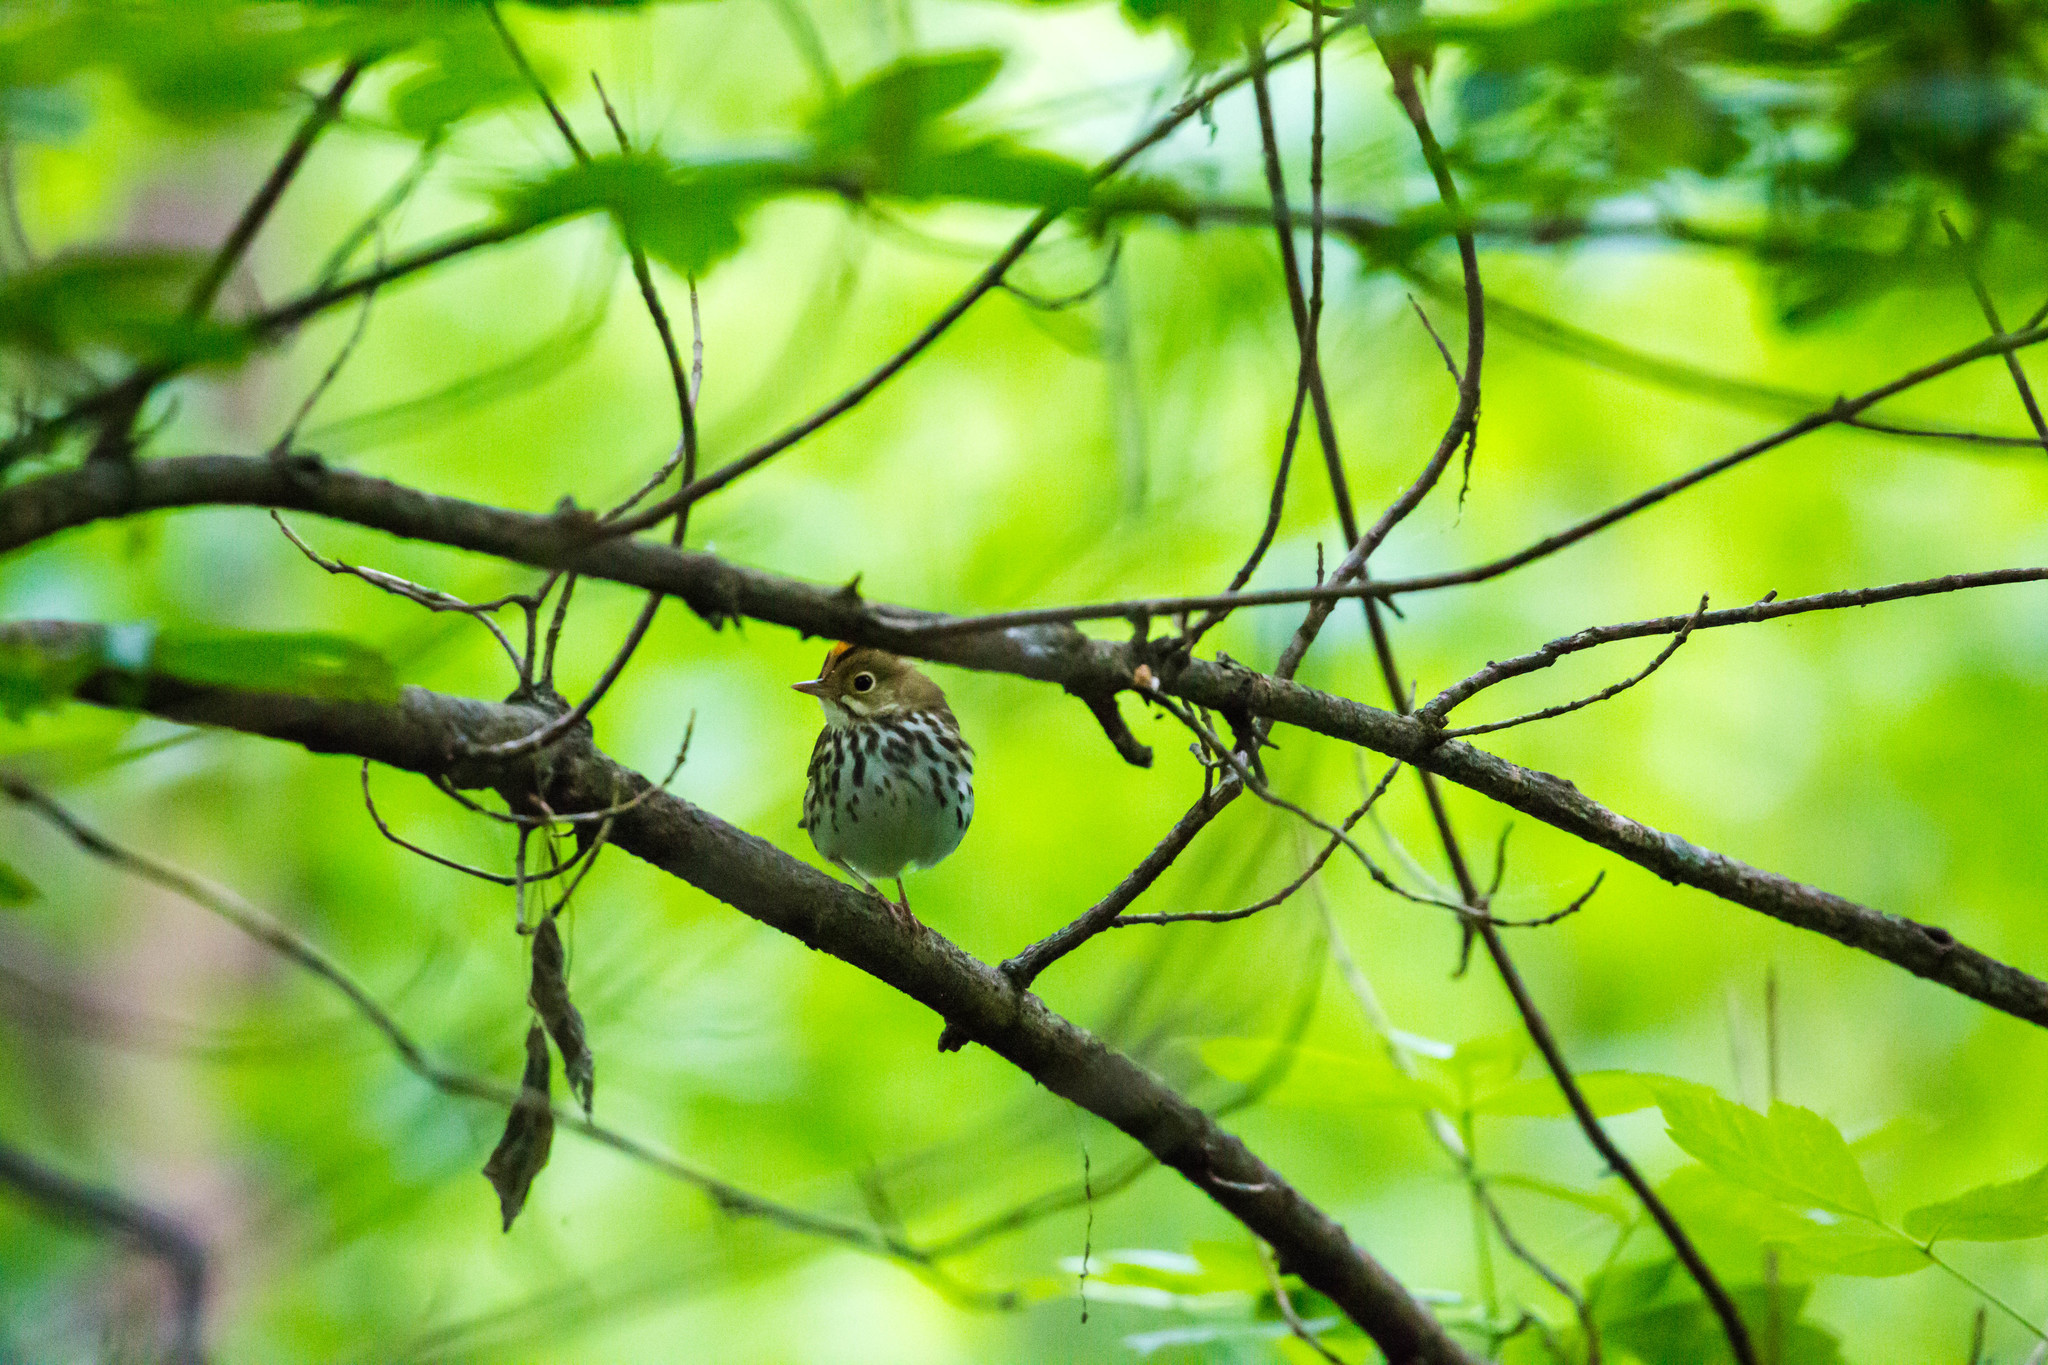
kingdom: Animalia
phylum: Chordata
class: Aves
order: Passeriformes
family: Parulidae
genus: Seiurus
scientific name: Seiurus aurocapilla
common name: Ovenbird
